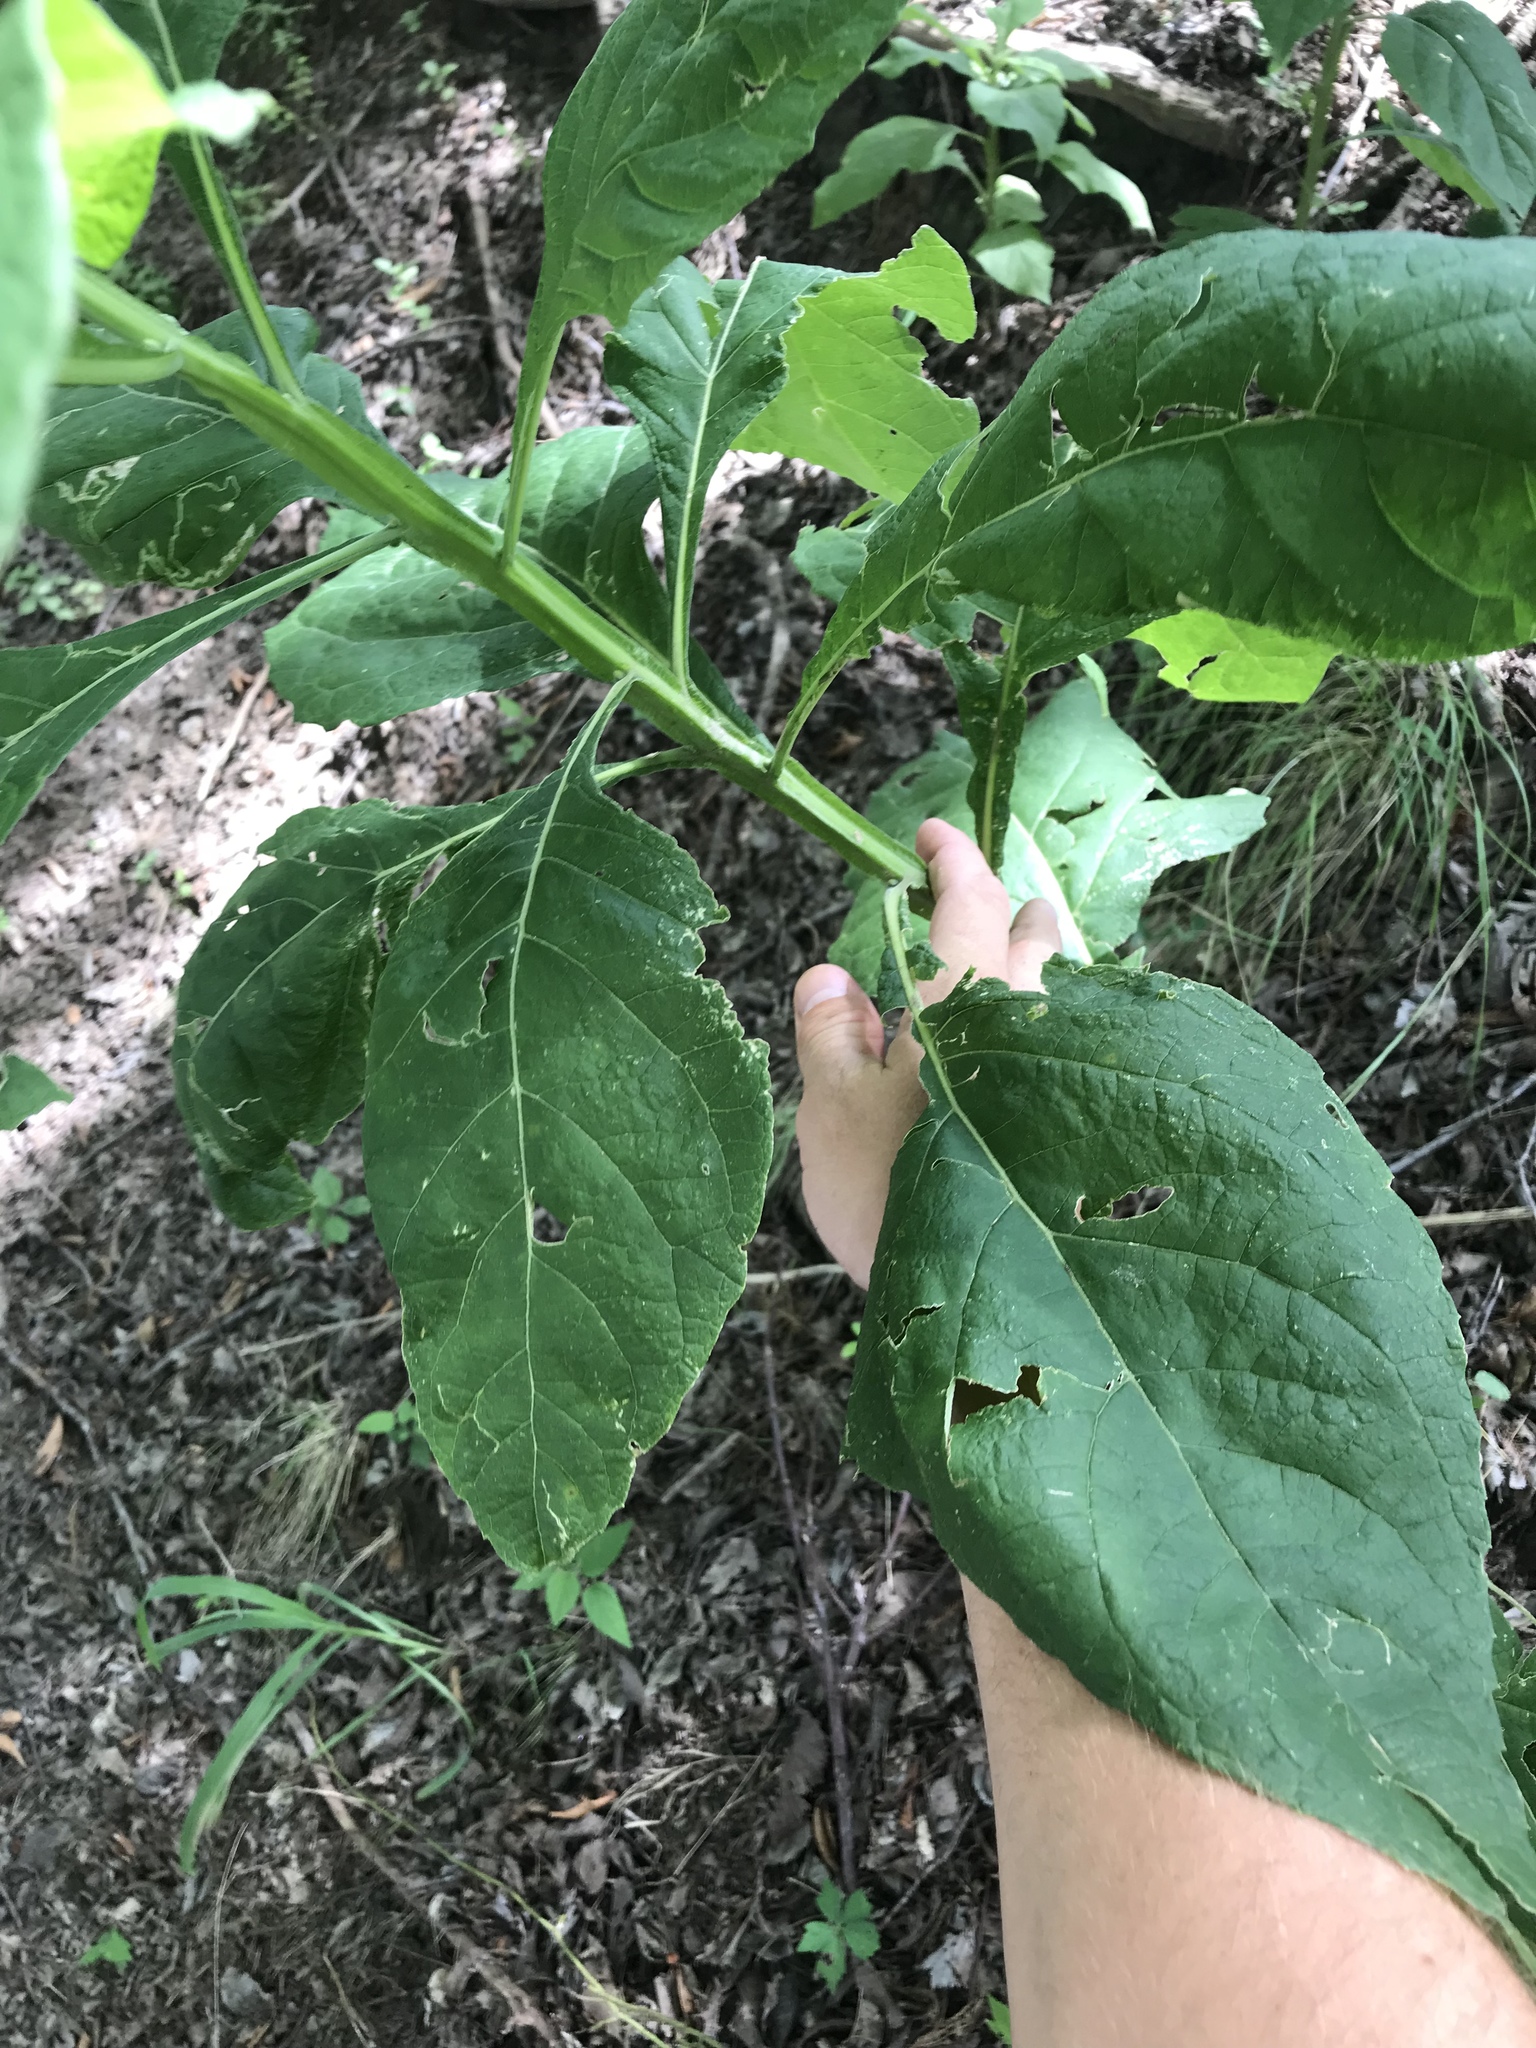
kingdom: Plantae
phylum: Tracheophyta
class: Magnoliopsida
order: Asterales
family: Asteraceae
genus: Verbesina
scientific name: Verbesina virginica
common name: Frostweed
